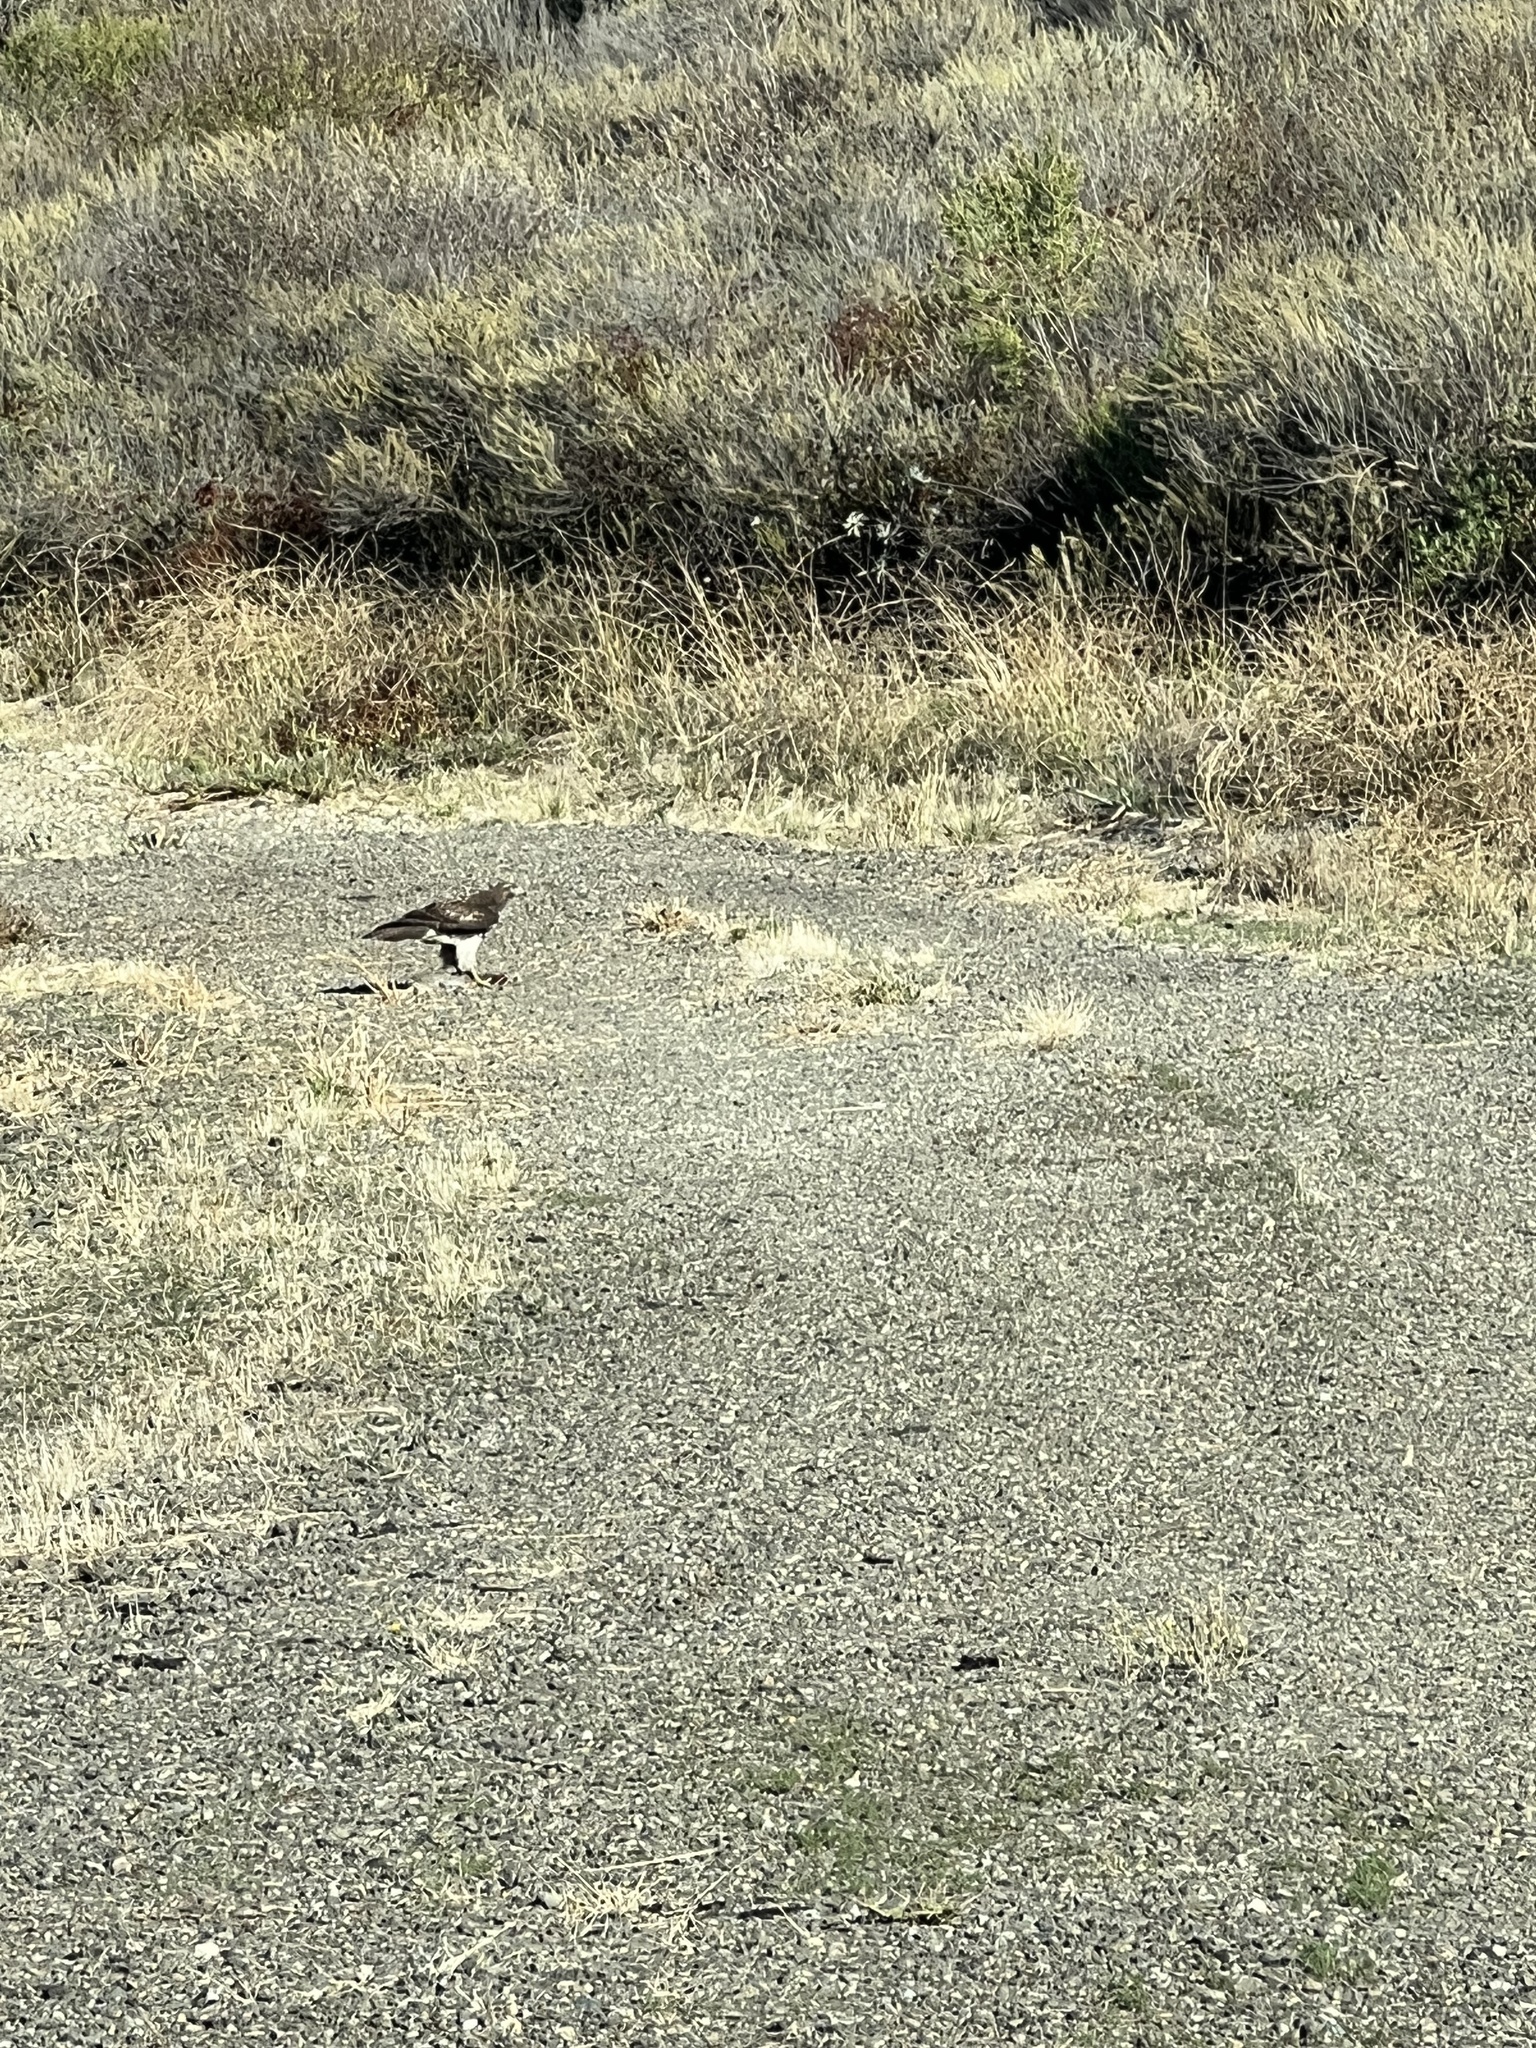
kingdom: Animalia
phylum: Chordata
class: Aves
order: Accipitriformes
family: Accipitridae
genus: Buteo
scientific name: Buteo jamaicensis
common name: Red-tailed hawk
